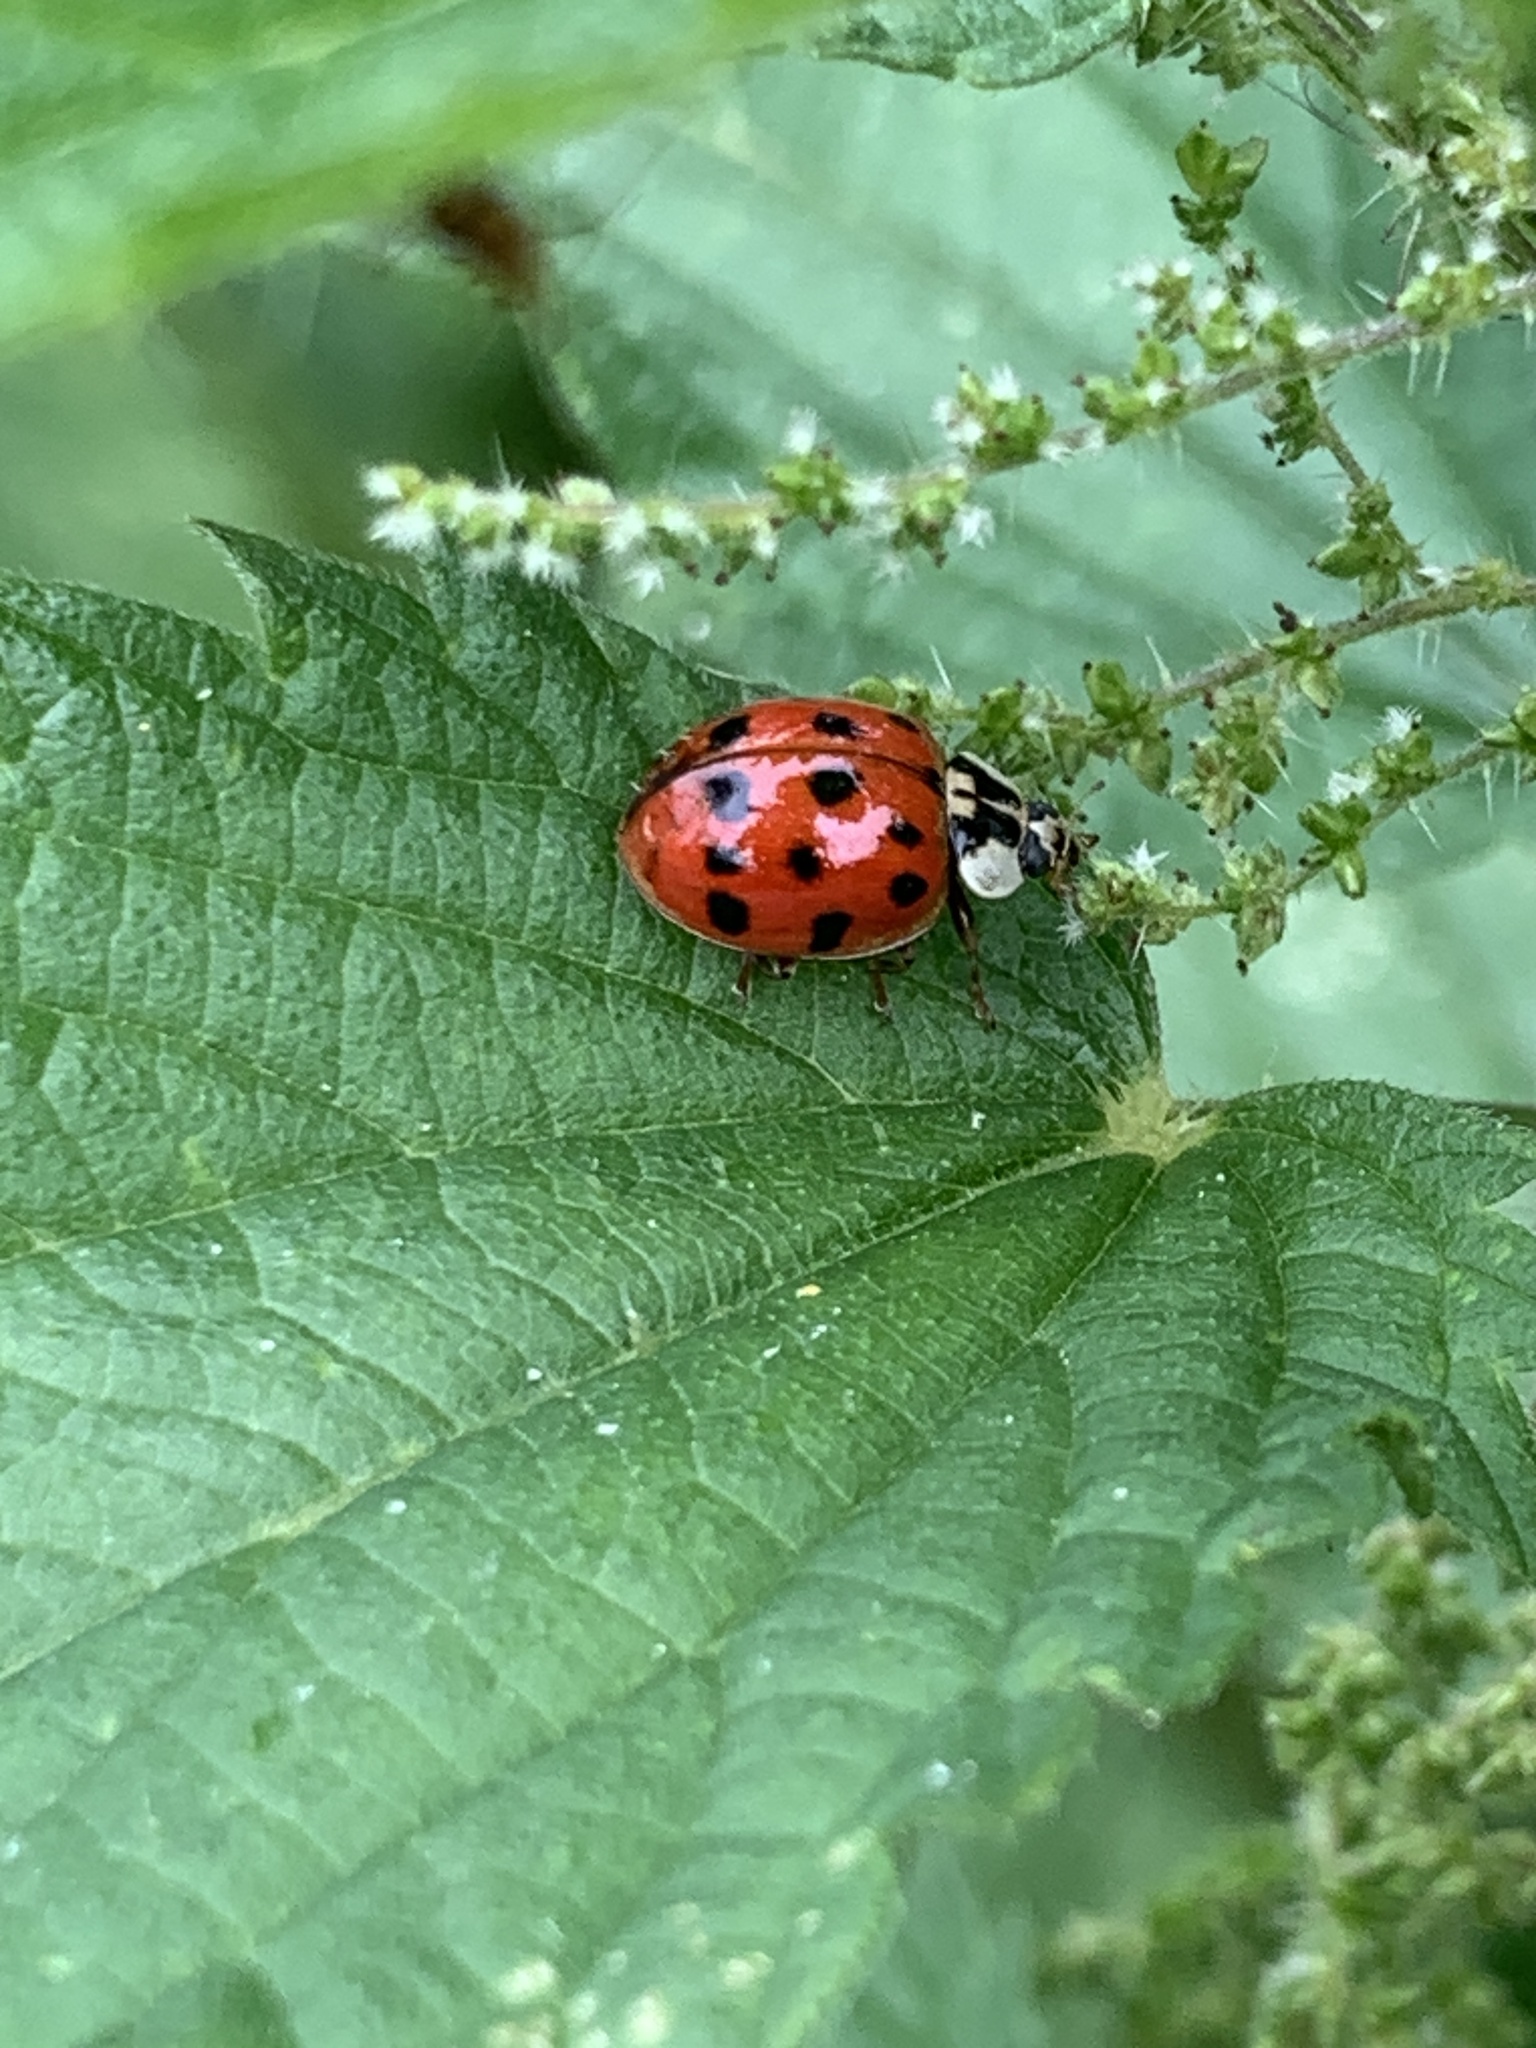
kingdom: Animalia
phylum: Arthropoda
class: Insecta
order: Coleoptera
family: Coccinellidae
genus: Harmonia
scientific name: Harmonia axyridis
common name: Harlequin ladybird
